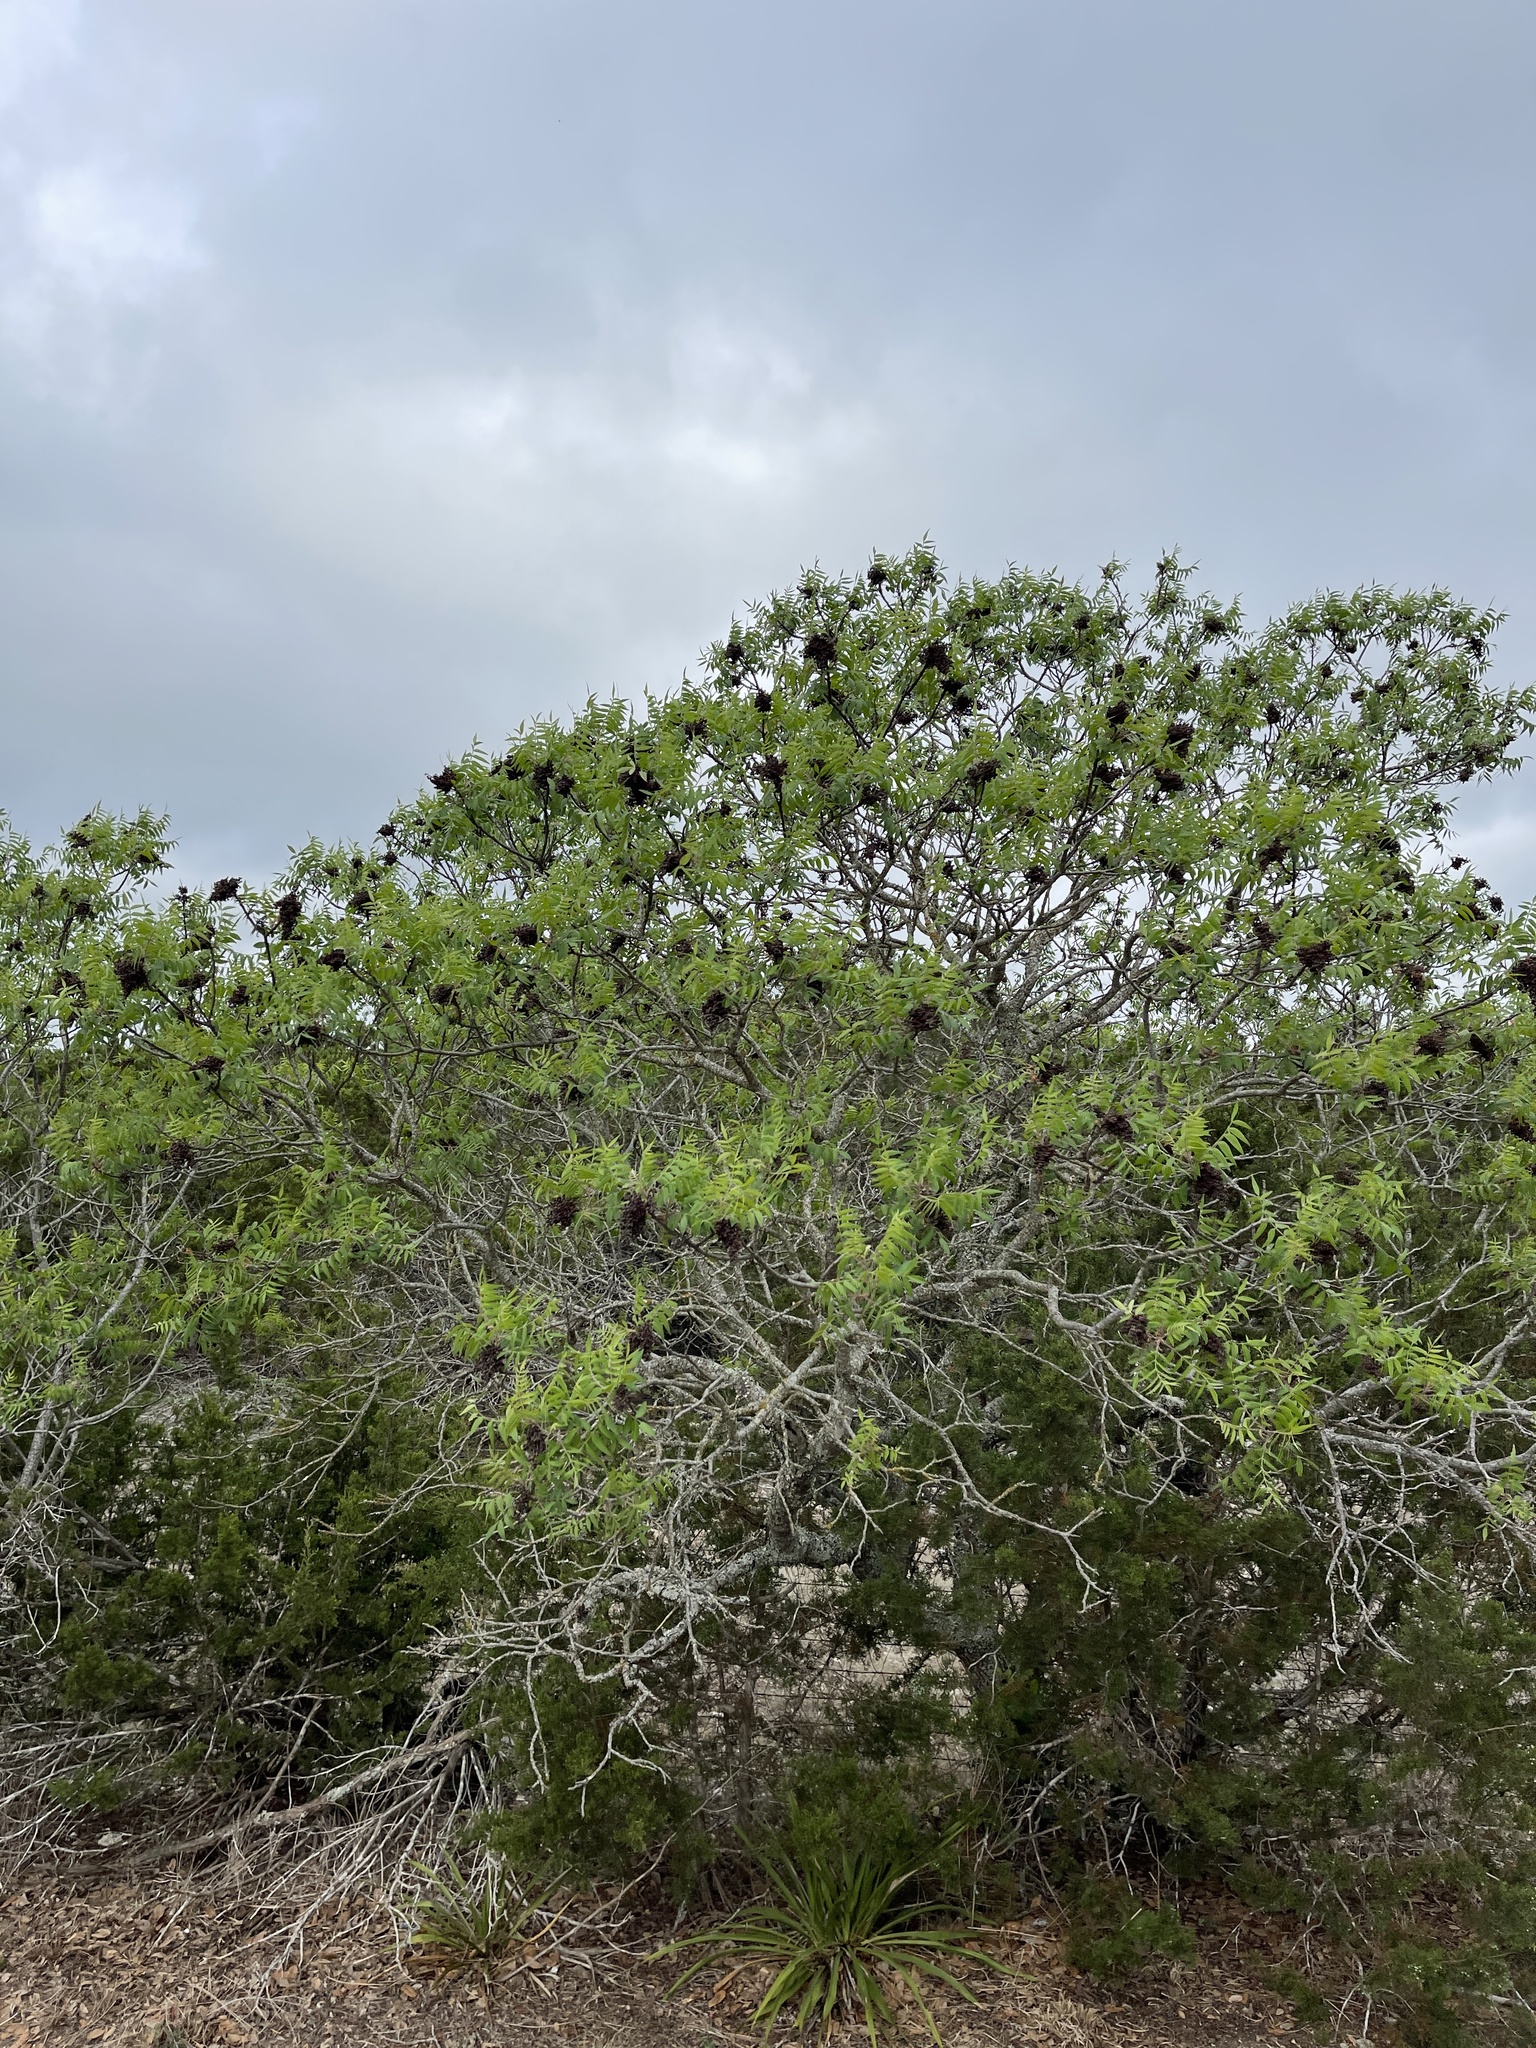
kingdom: Plantae
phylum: Tracheophyta
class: Magnoliopsida
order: Sapindales
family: Anacardiaceae
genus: Rhus
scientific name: Rhus lanceolata
